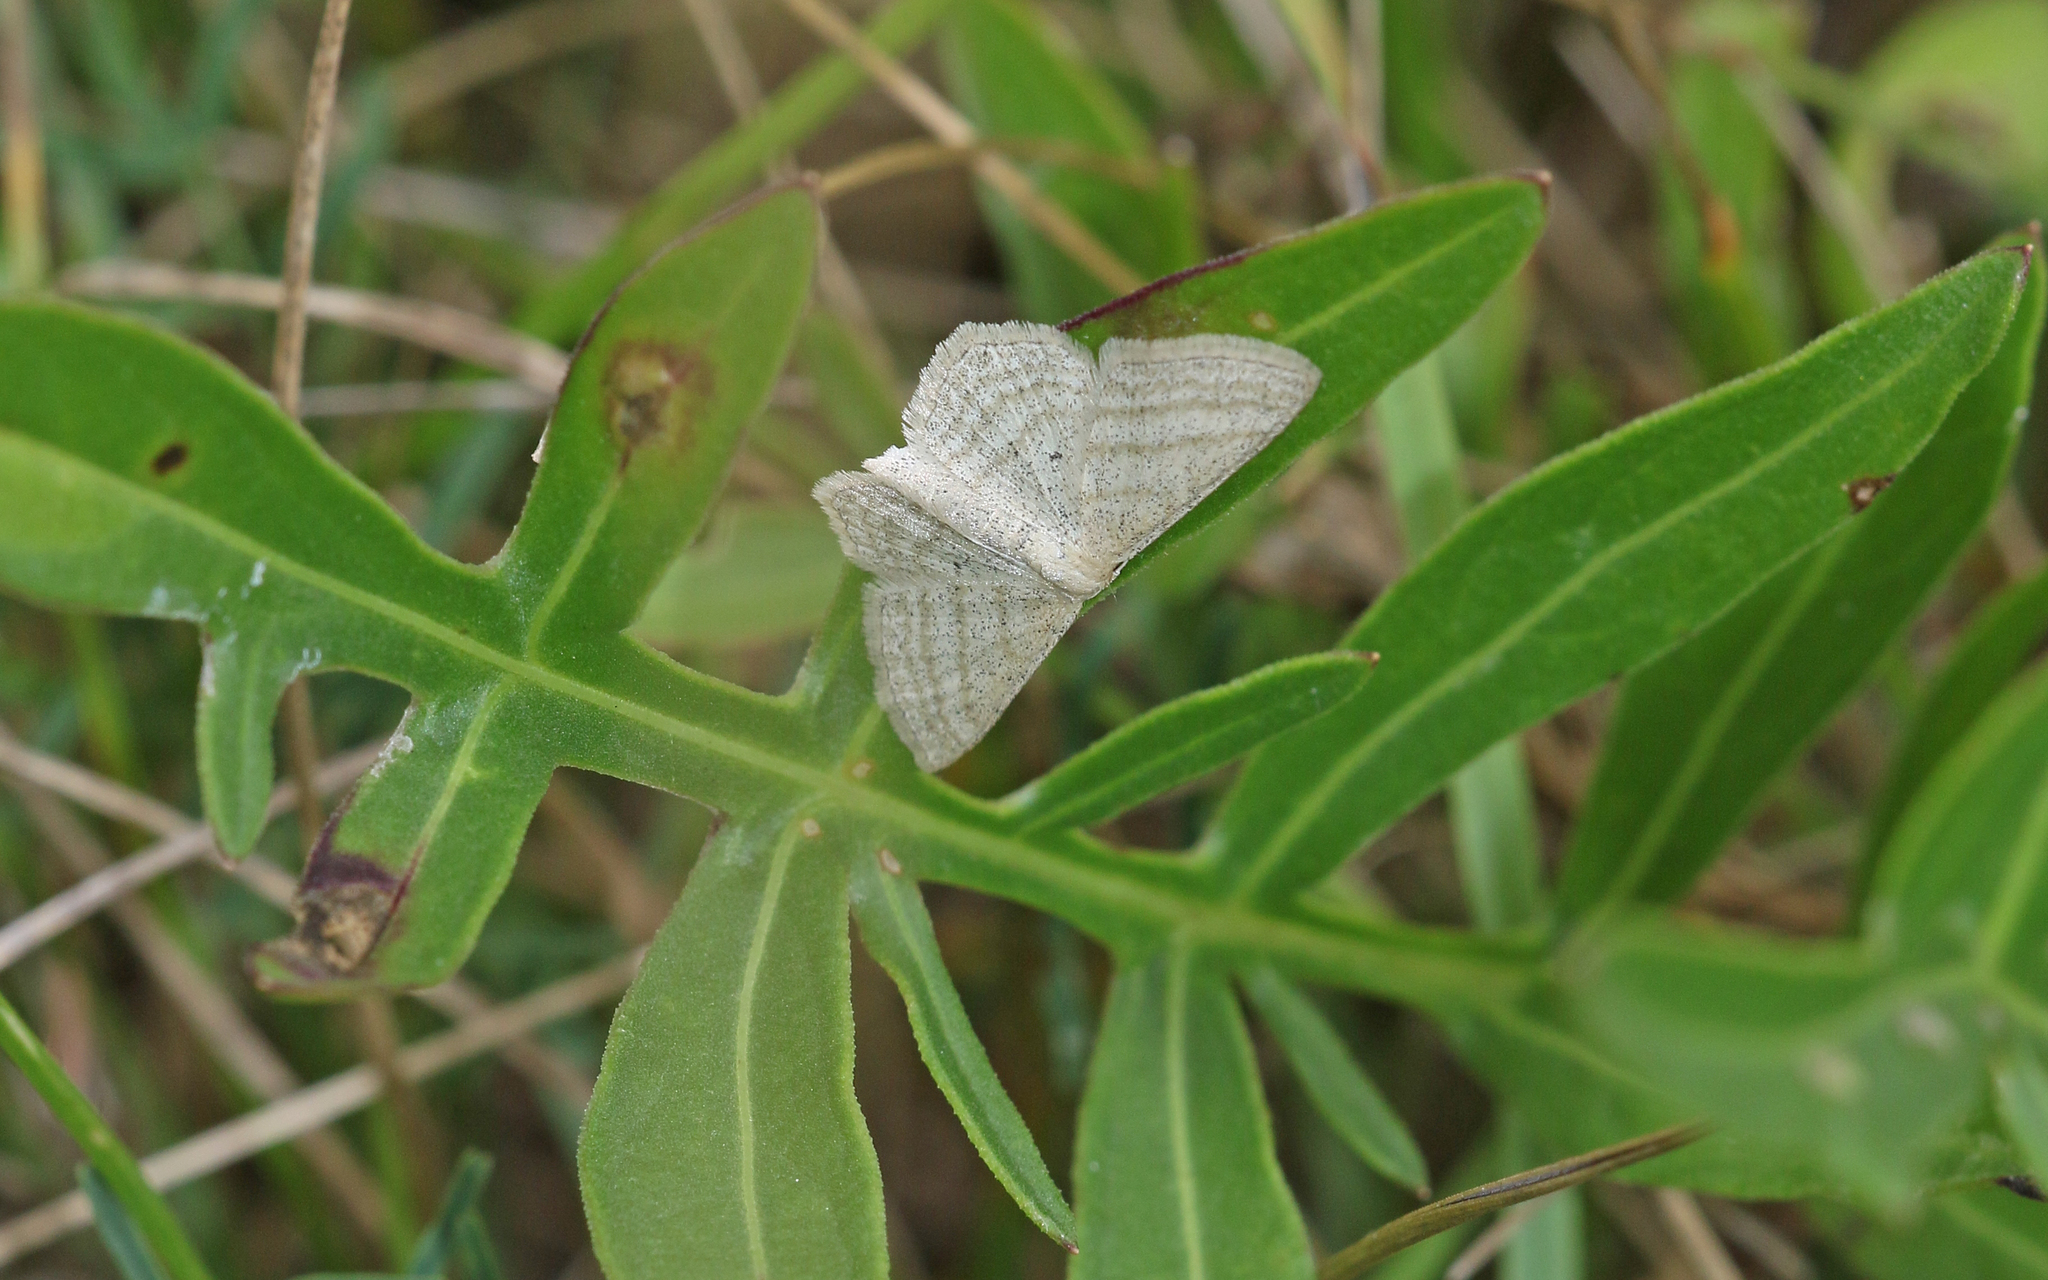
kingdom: Animalia
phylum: Arthropoda
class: Insecta
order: Lepidoptera
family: Geometridae
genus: Scopula
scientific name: Scopula virgulata
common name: Streaked wave
